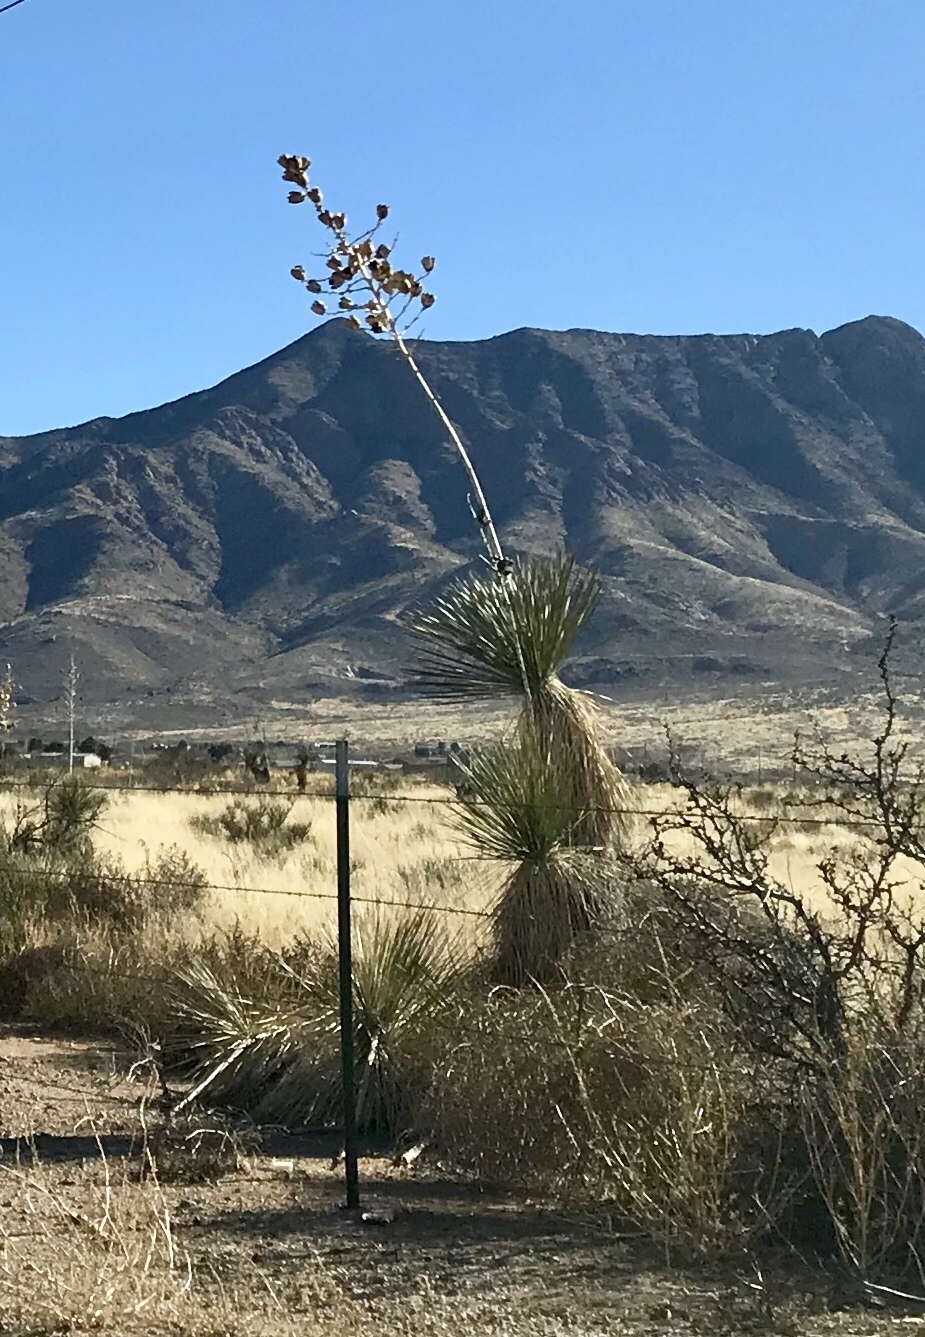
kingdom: Plantae
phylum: Tracheophyta
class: Liliopsida
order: Asparagales
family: Asparagaceae
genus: Yucca
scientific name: Yucca elata
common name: Palmella
